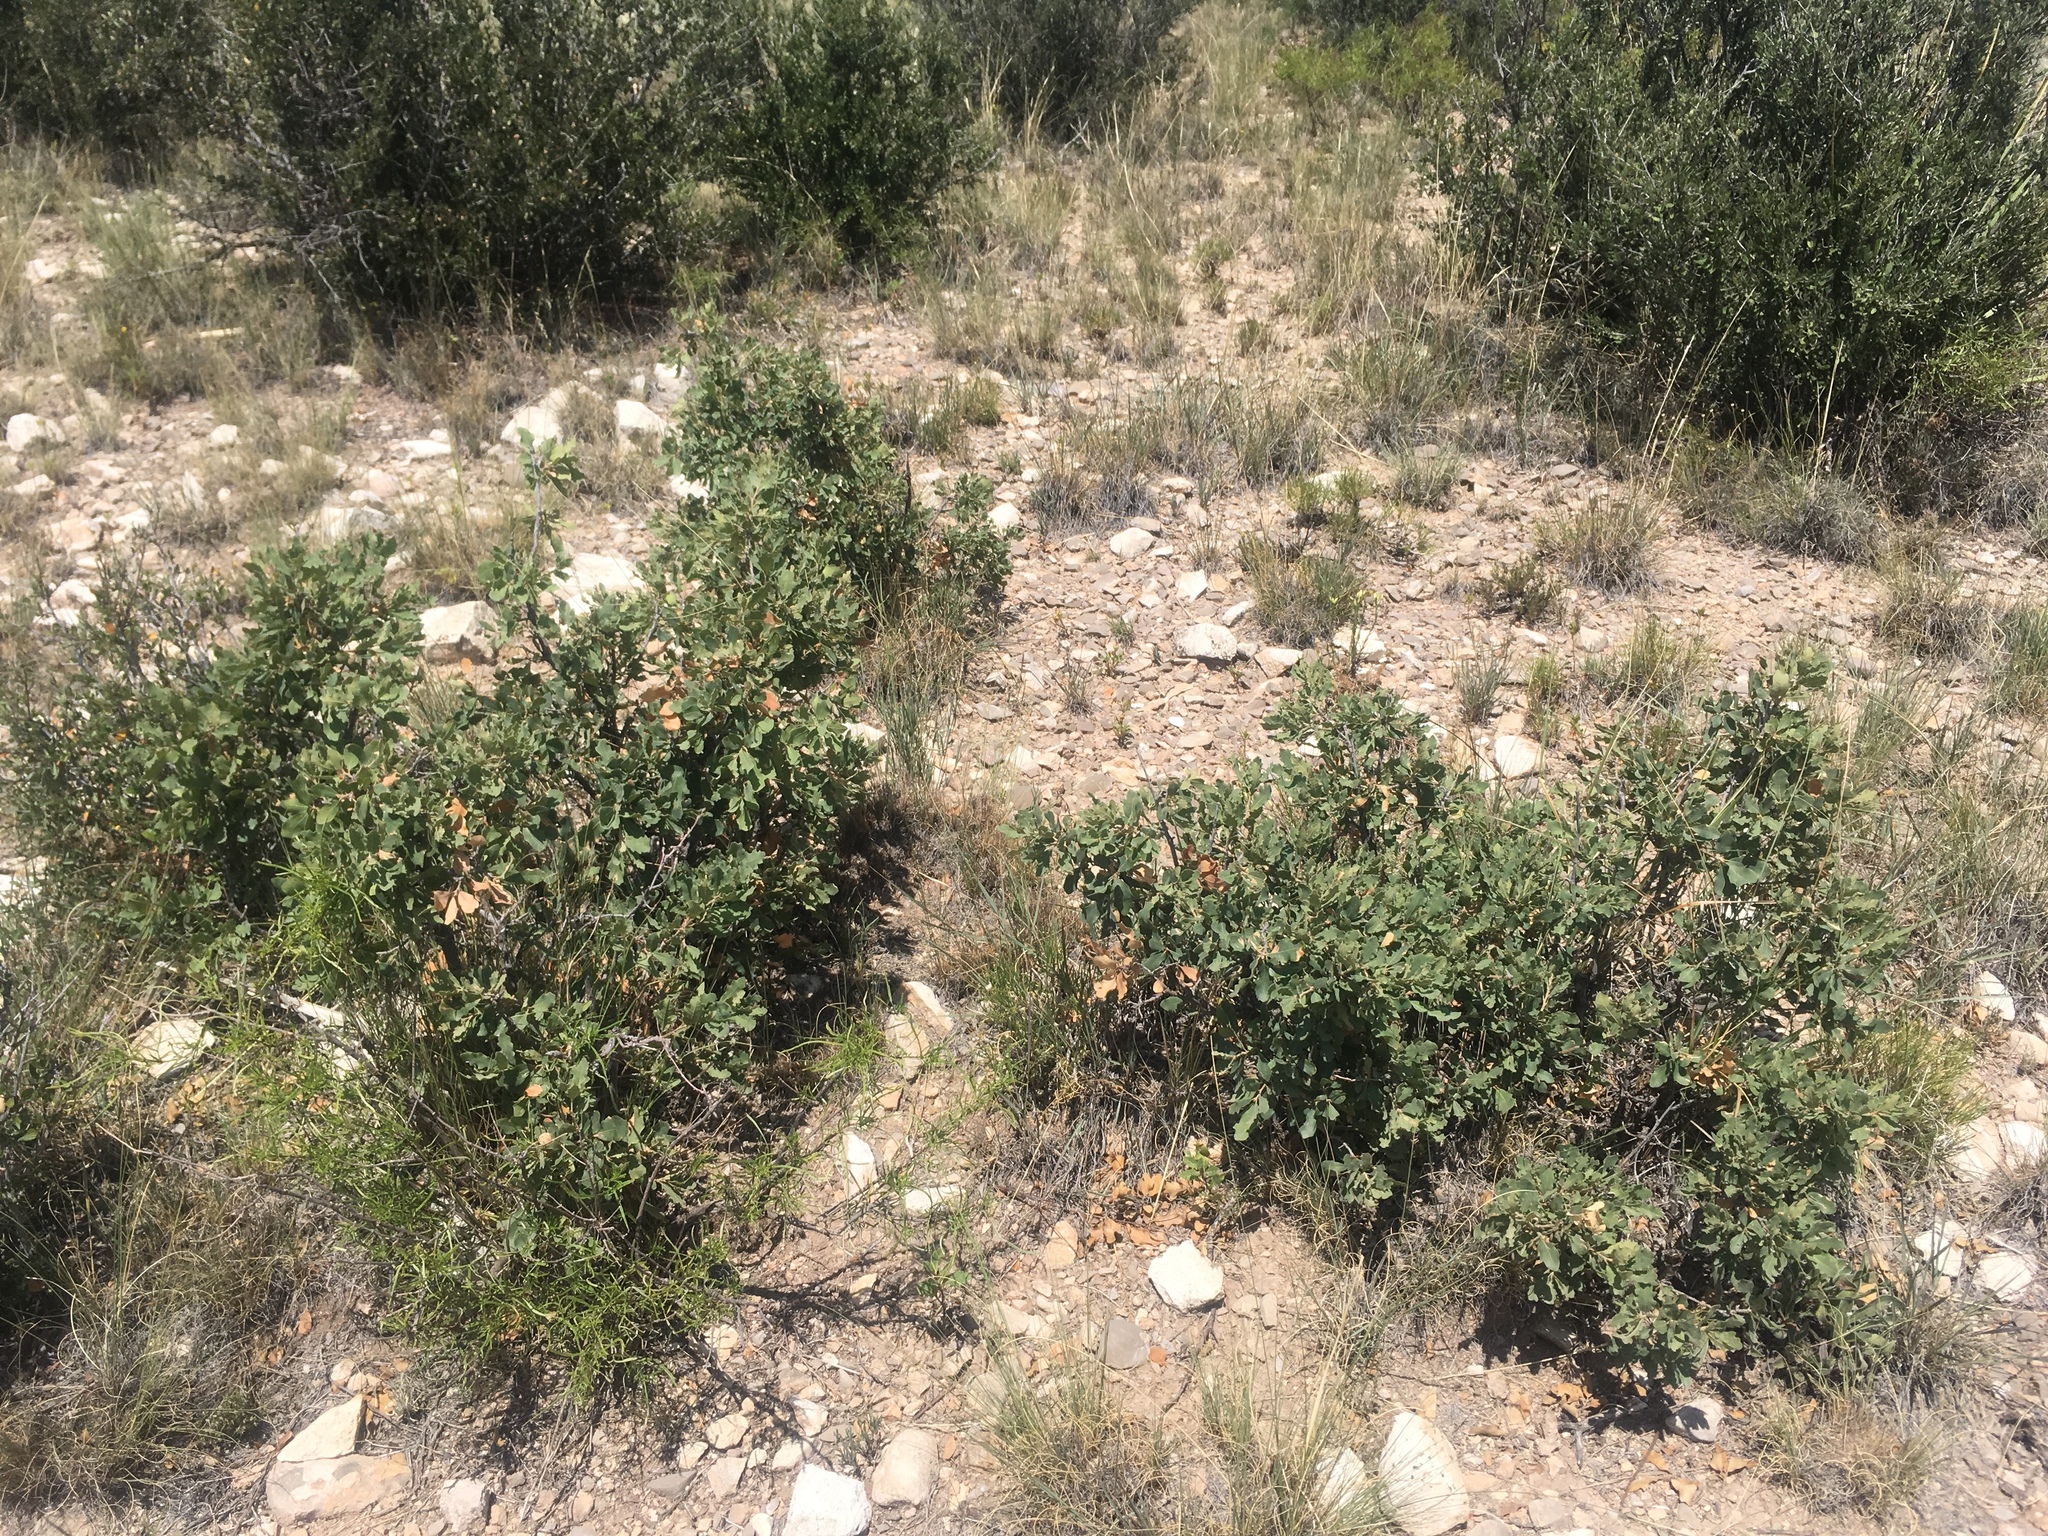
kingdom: Plantae
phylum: Tracheophyta
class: Magnoliopsida
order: Fagales
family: Fagaceae
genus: Quercus
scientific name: Quercus undulata
